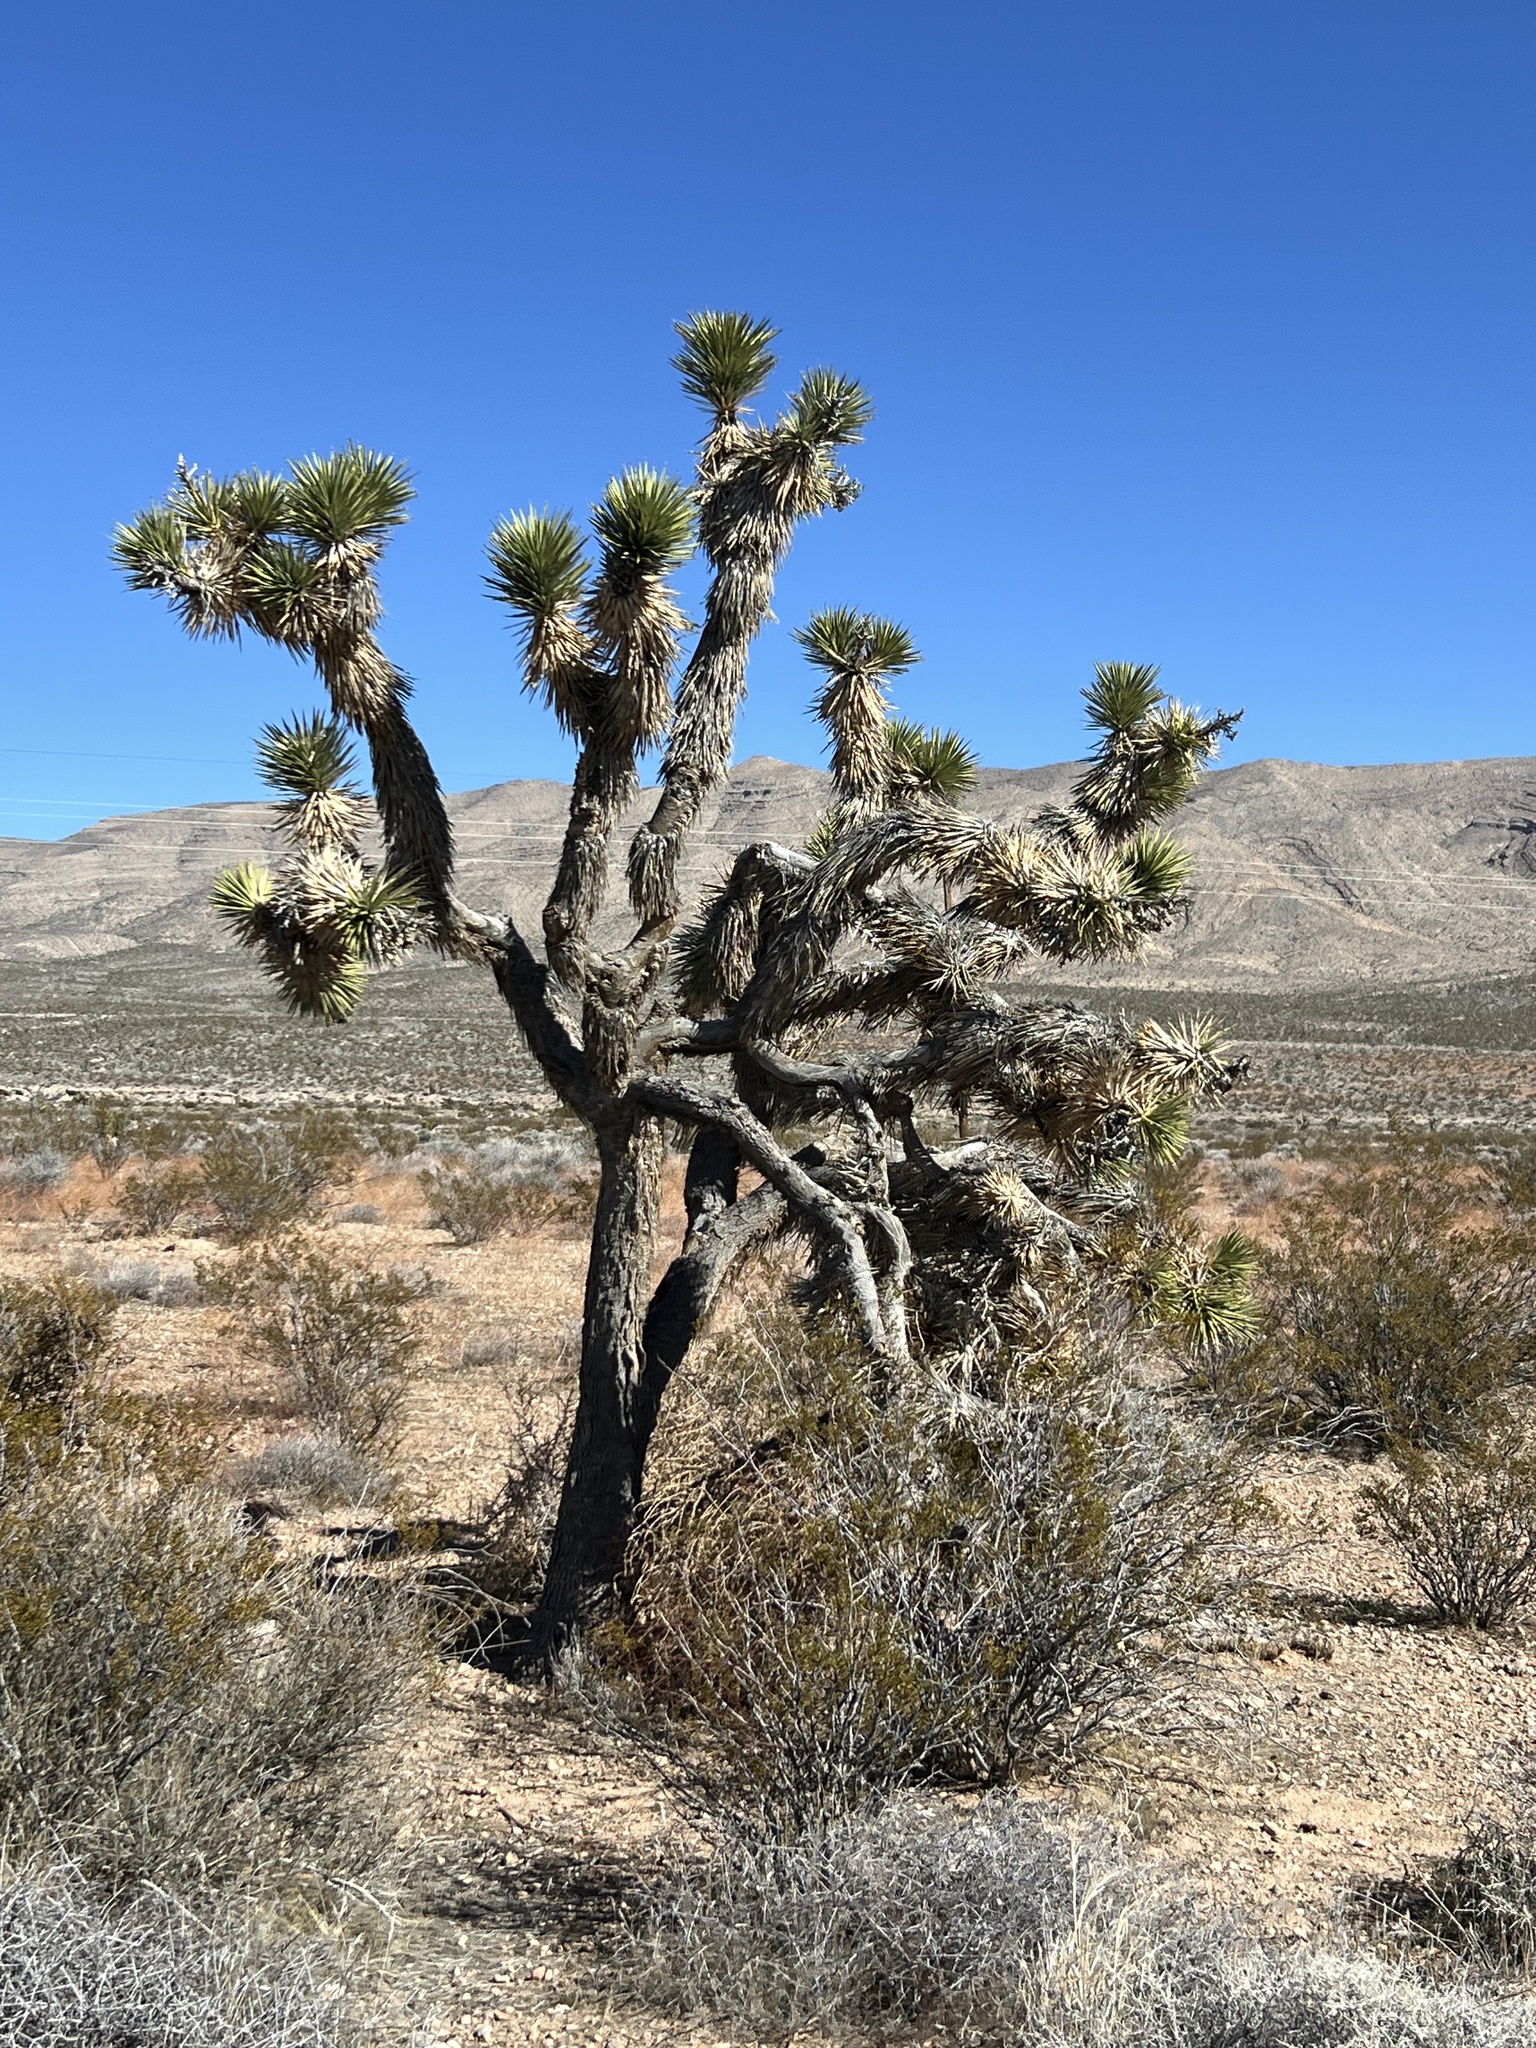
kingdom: Plantae
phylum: Tracheophyta
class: Liliopsida
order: Asparagales
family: Asparagaceae
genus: Yucca
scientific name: Yucca brevifolia
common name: Joshua tree
